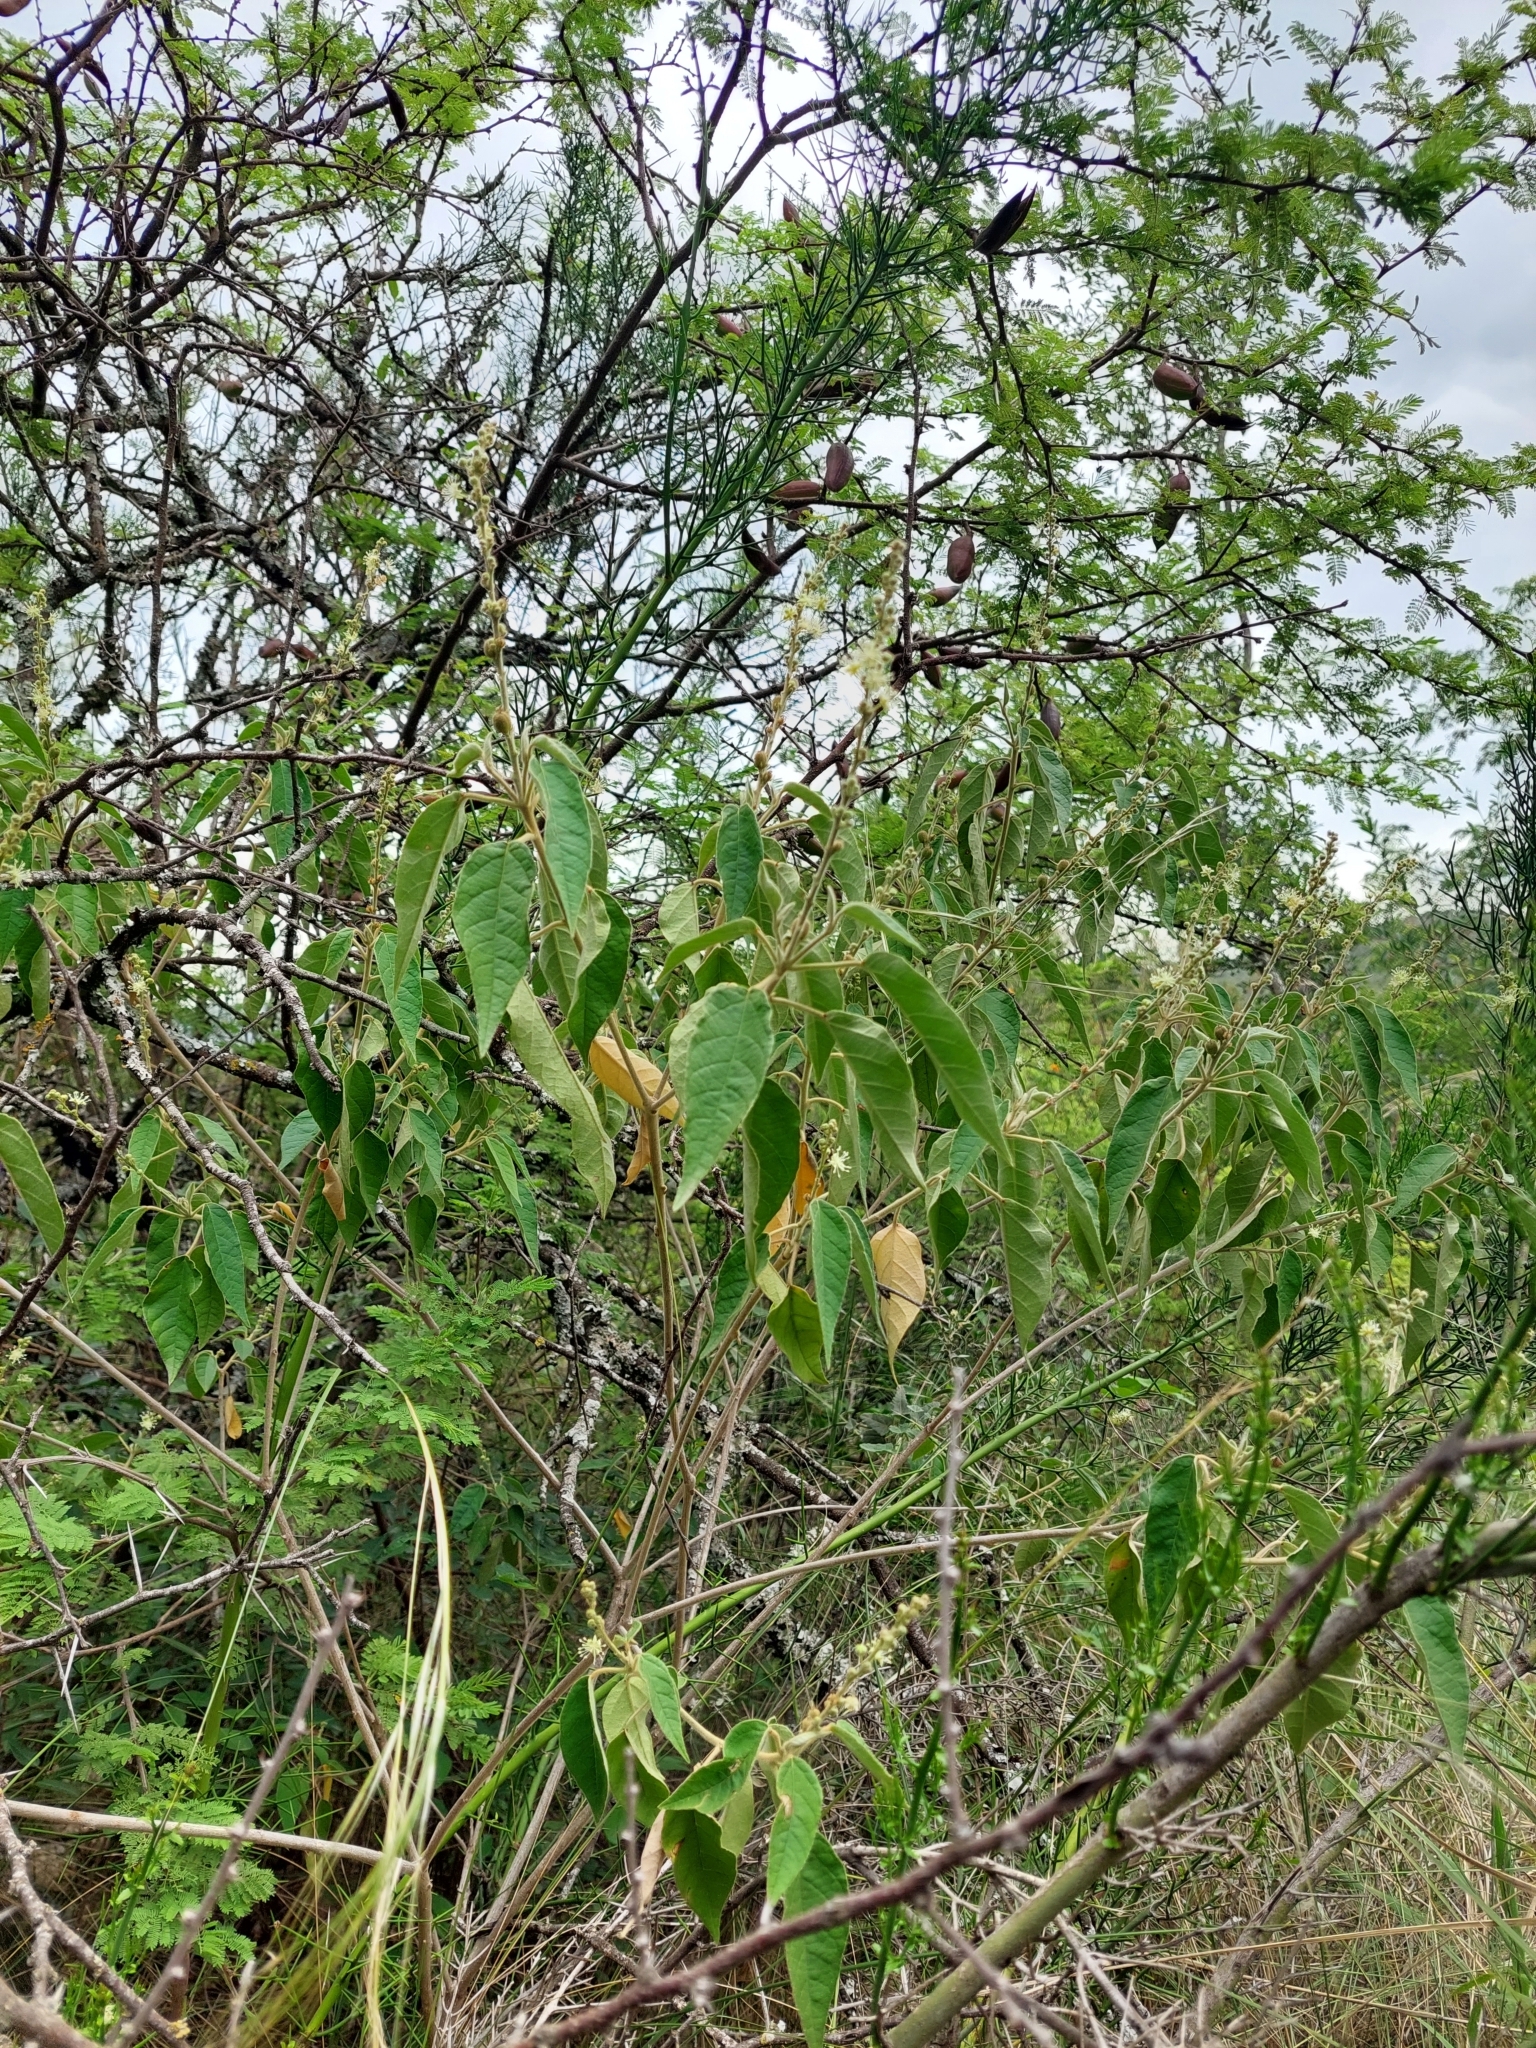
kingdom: Plantae
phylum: Tracheophyta
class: Magnoliopsida
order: Malpighiales
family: Euphorbiaceae
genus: Croton
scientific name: Croton lachnostachyus
